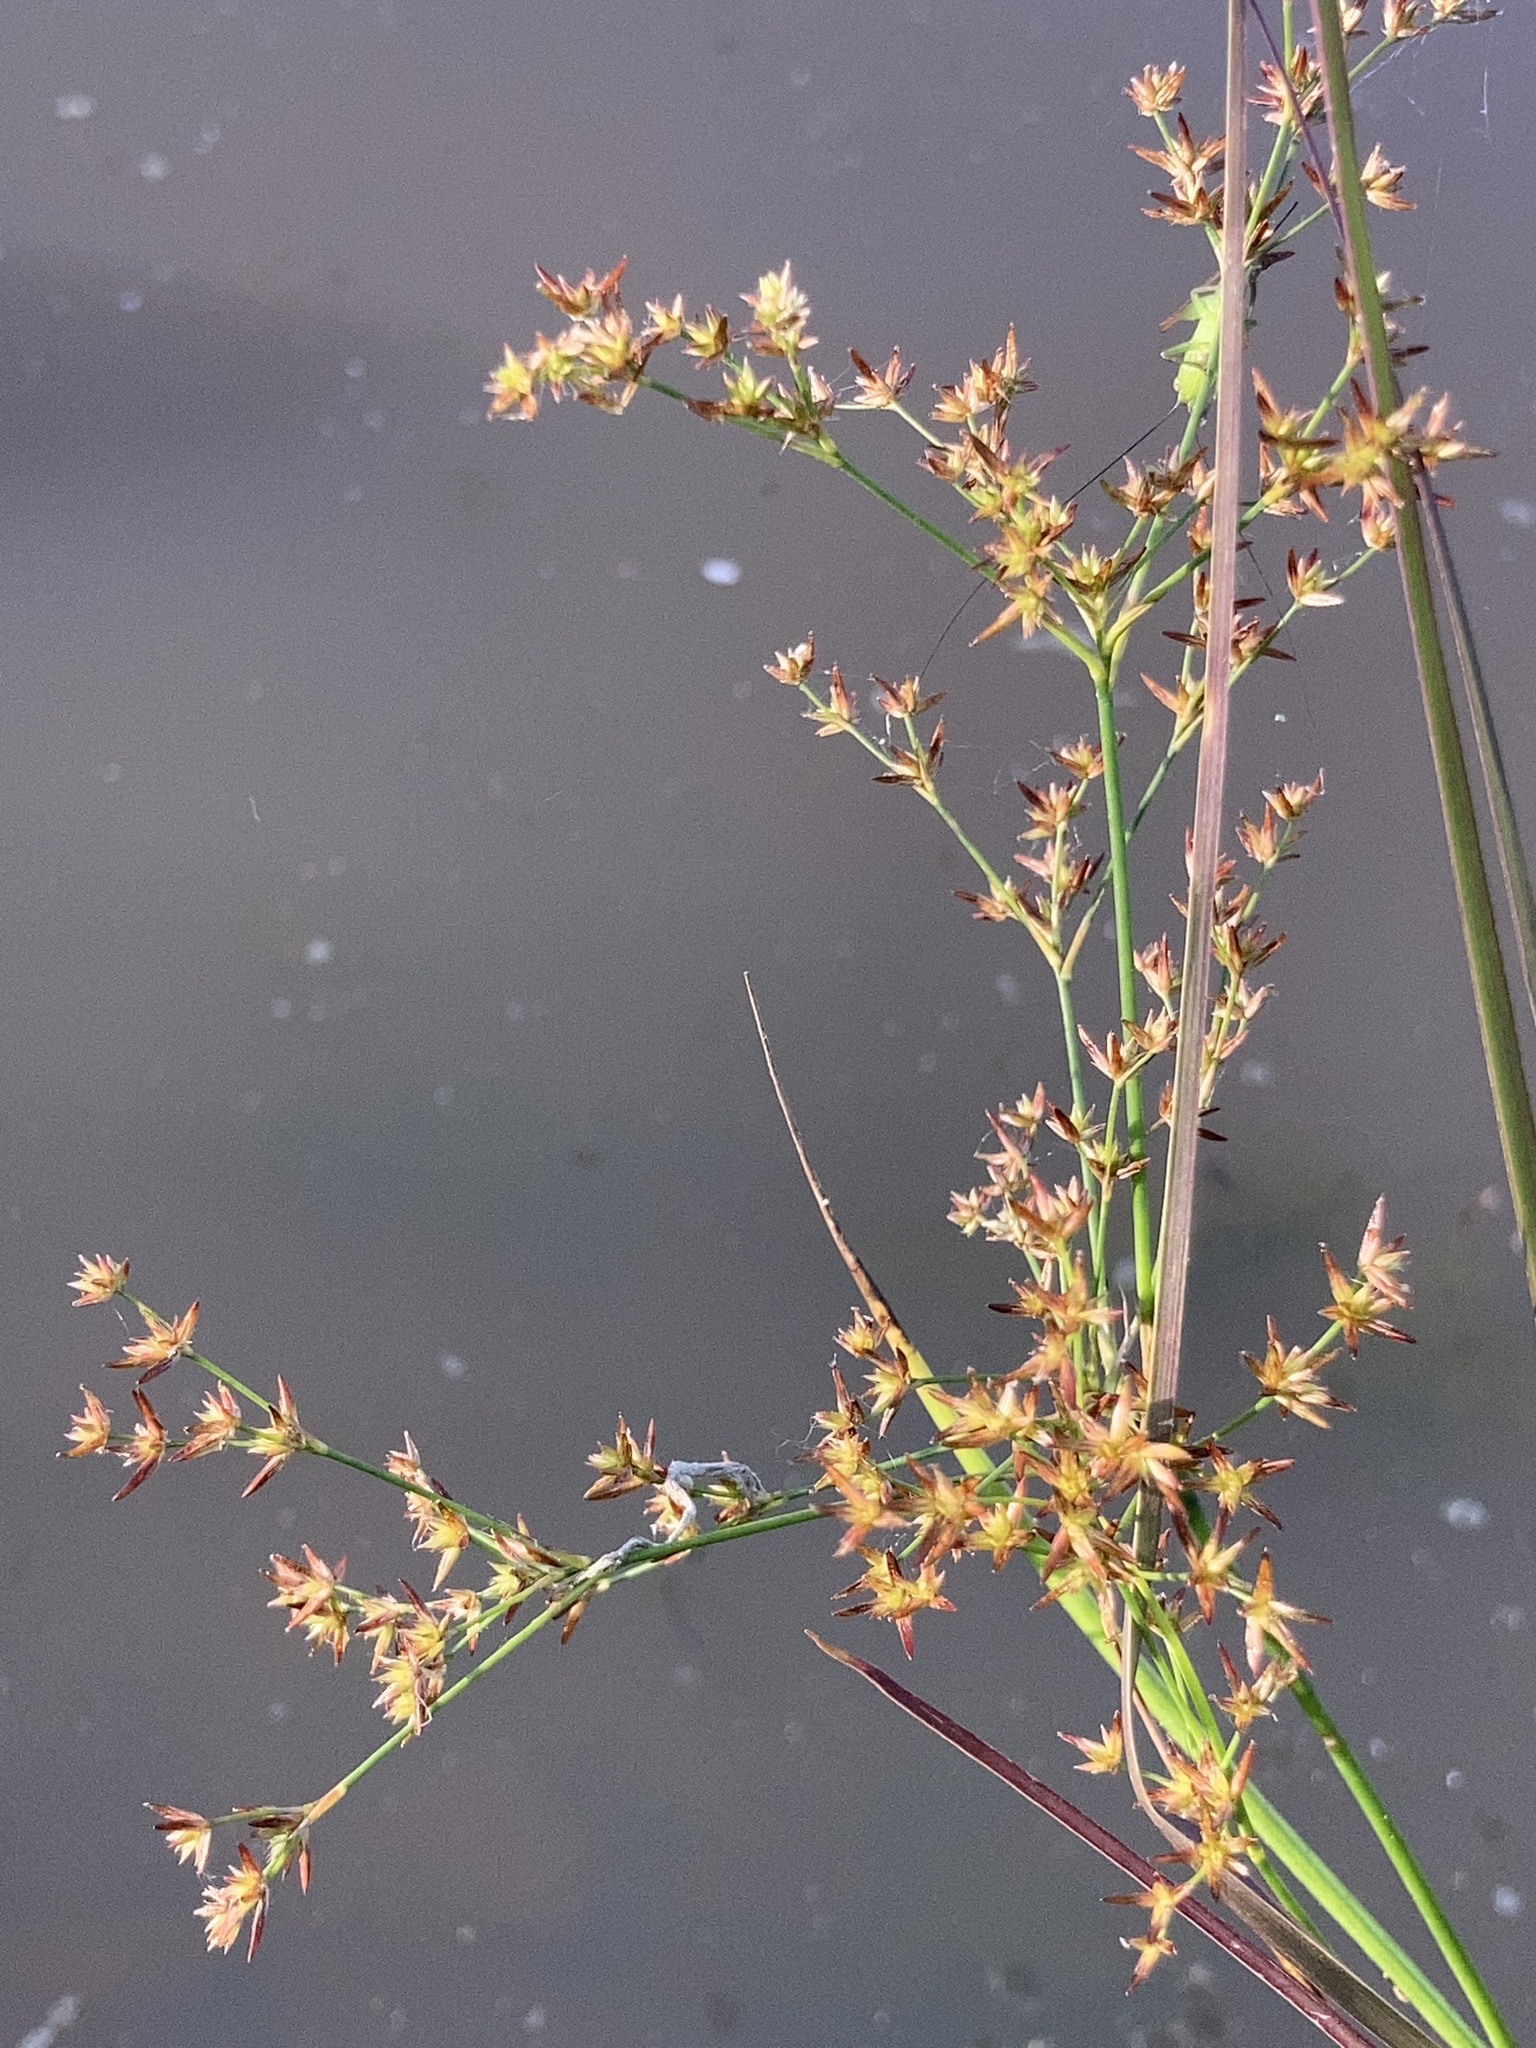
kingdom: Plantae
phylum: Tracheophyta
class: Liliopsida
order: Poales
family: Juncaceae
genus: Juncus
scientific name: Juncus diffusissimus
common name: Slimpod rush
